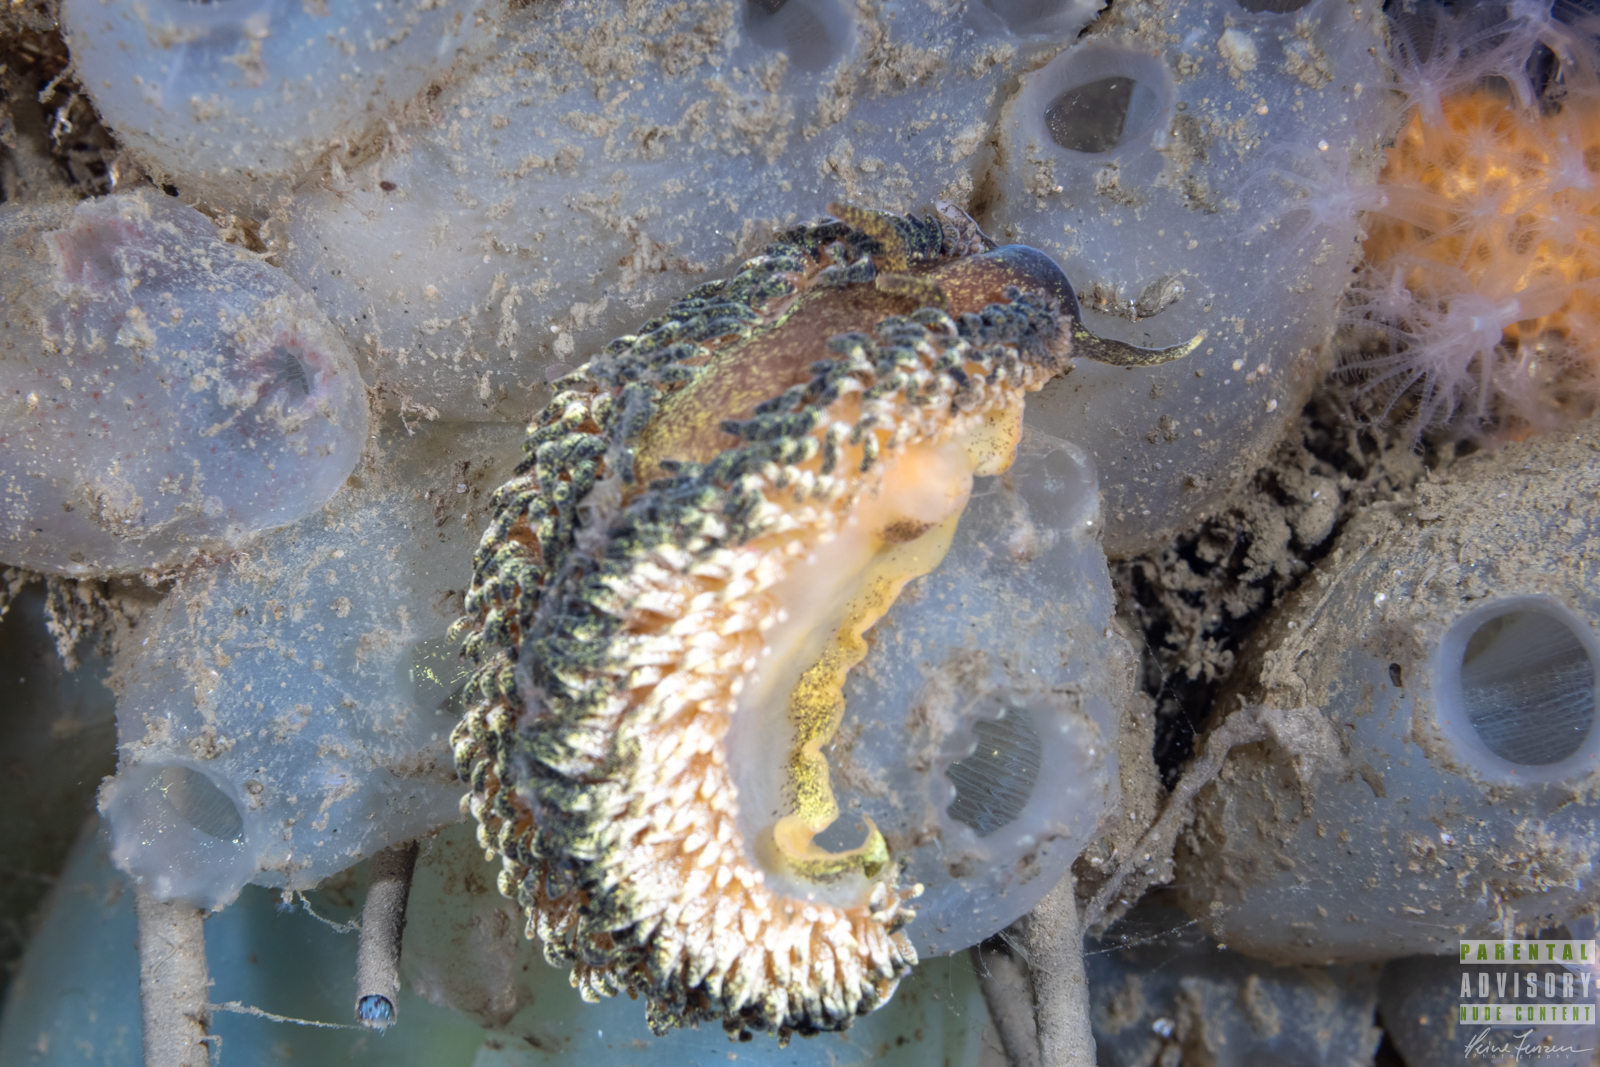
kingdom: Animalia
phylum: Mollusca
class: Gastropoda
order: Nudibranchia
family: Aeolidiidae
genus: Aeolidia
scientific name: Aeolidia papillosa
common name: Common grey sea slug
